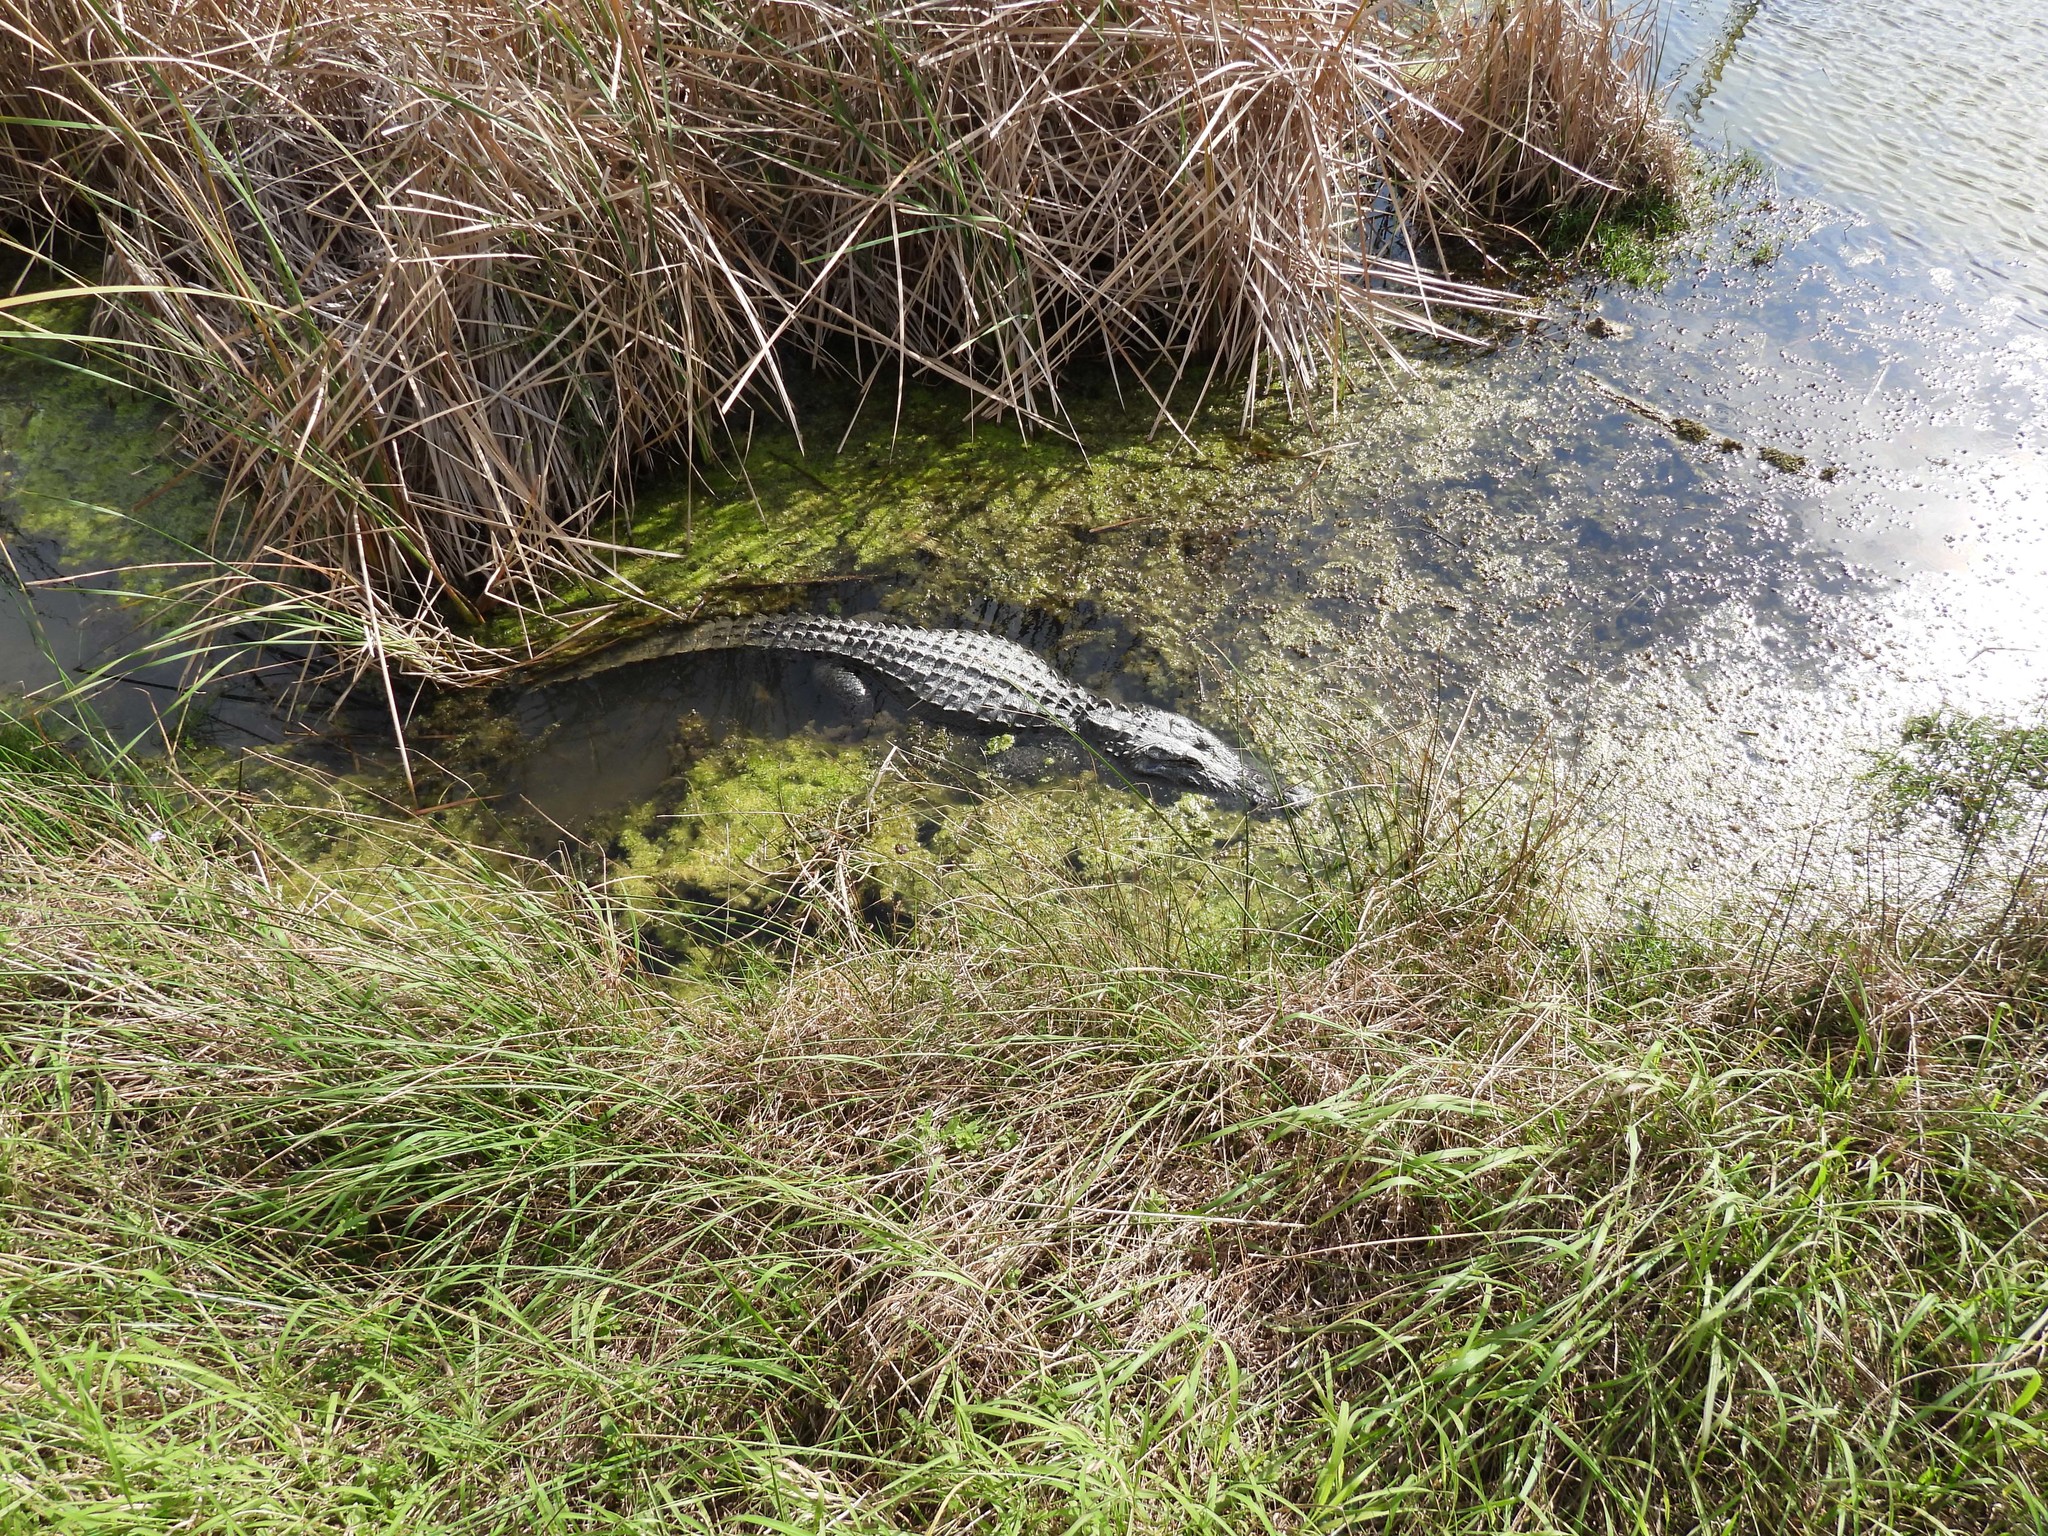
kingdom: Animalia
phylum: Chordata
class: Crocodylia
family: Alligatoridae
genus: Alligator
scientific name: Alligator mississippiensis
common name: American alligator
